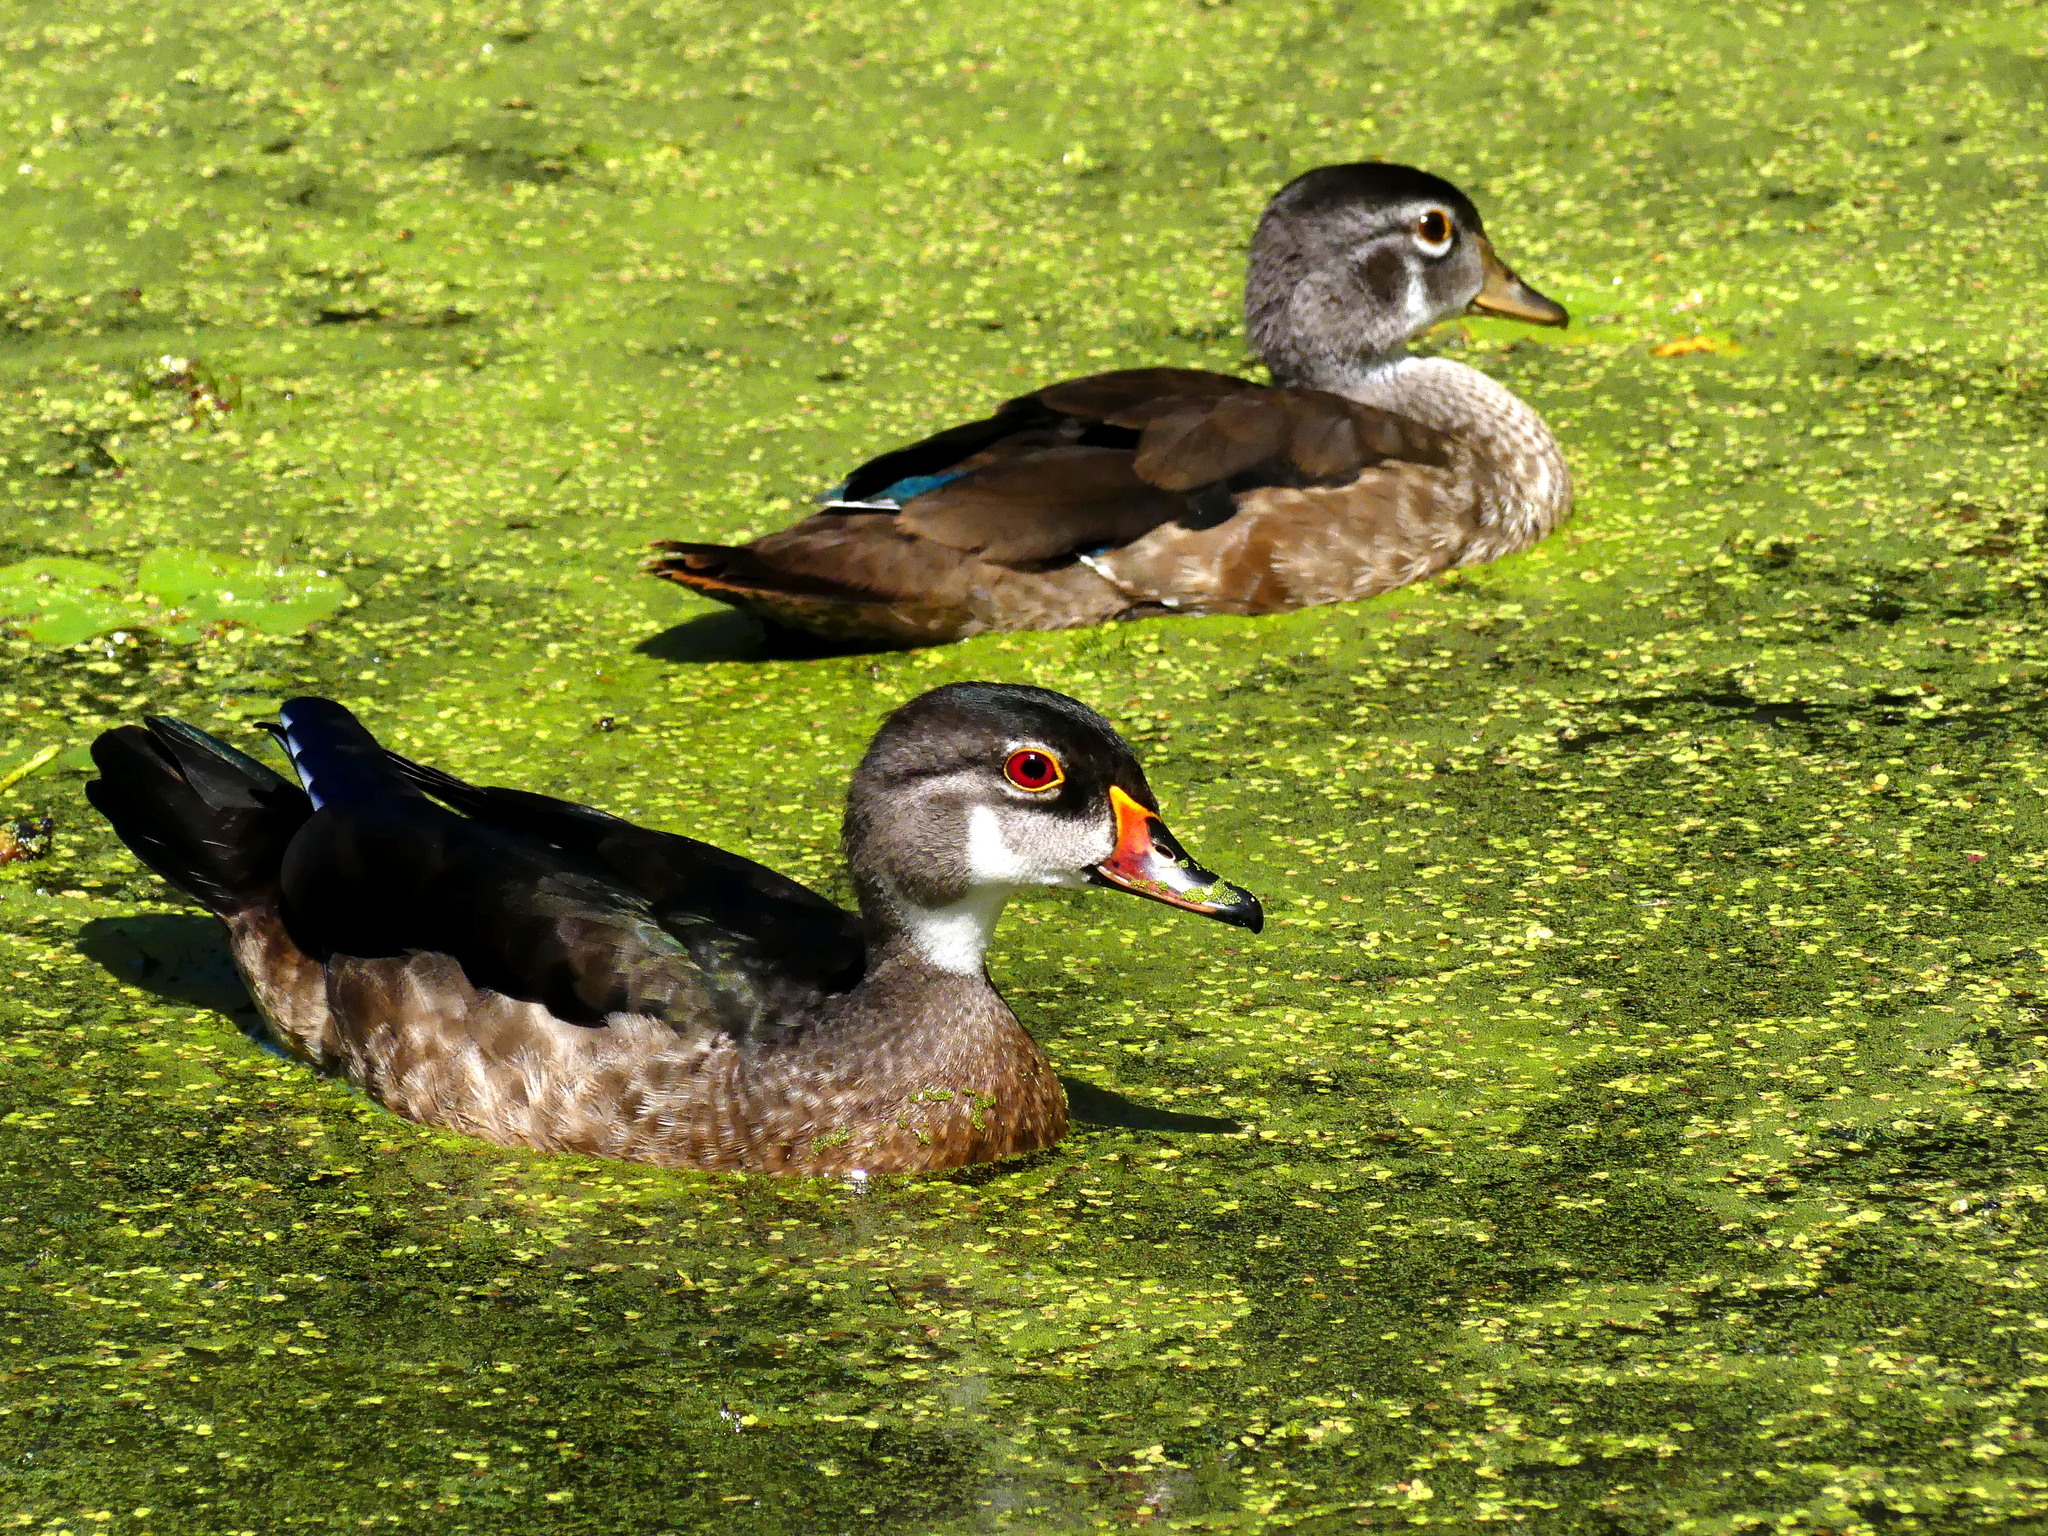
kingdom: Animalia
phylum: Chordata
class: Aves
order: Anseriformes
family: Anatidae
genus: Aix
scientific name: Aix sponsa
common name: Wood duck
